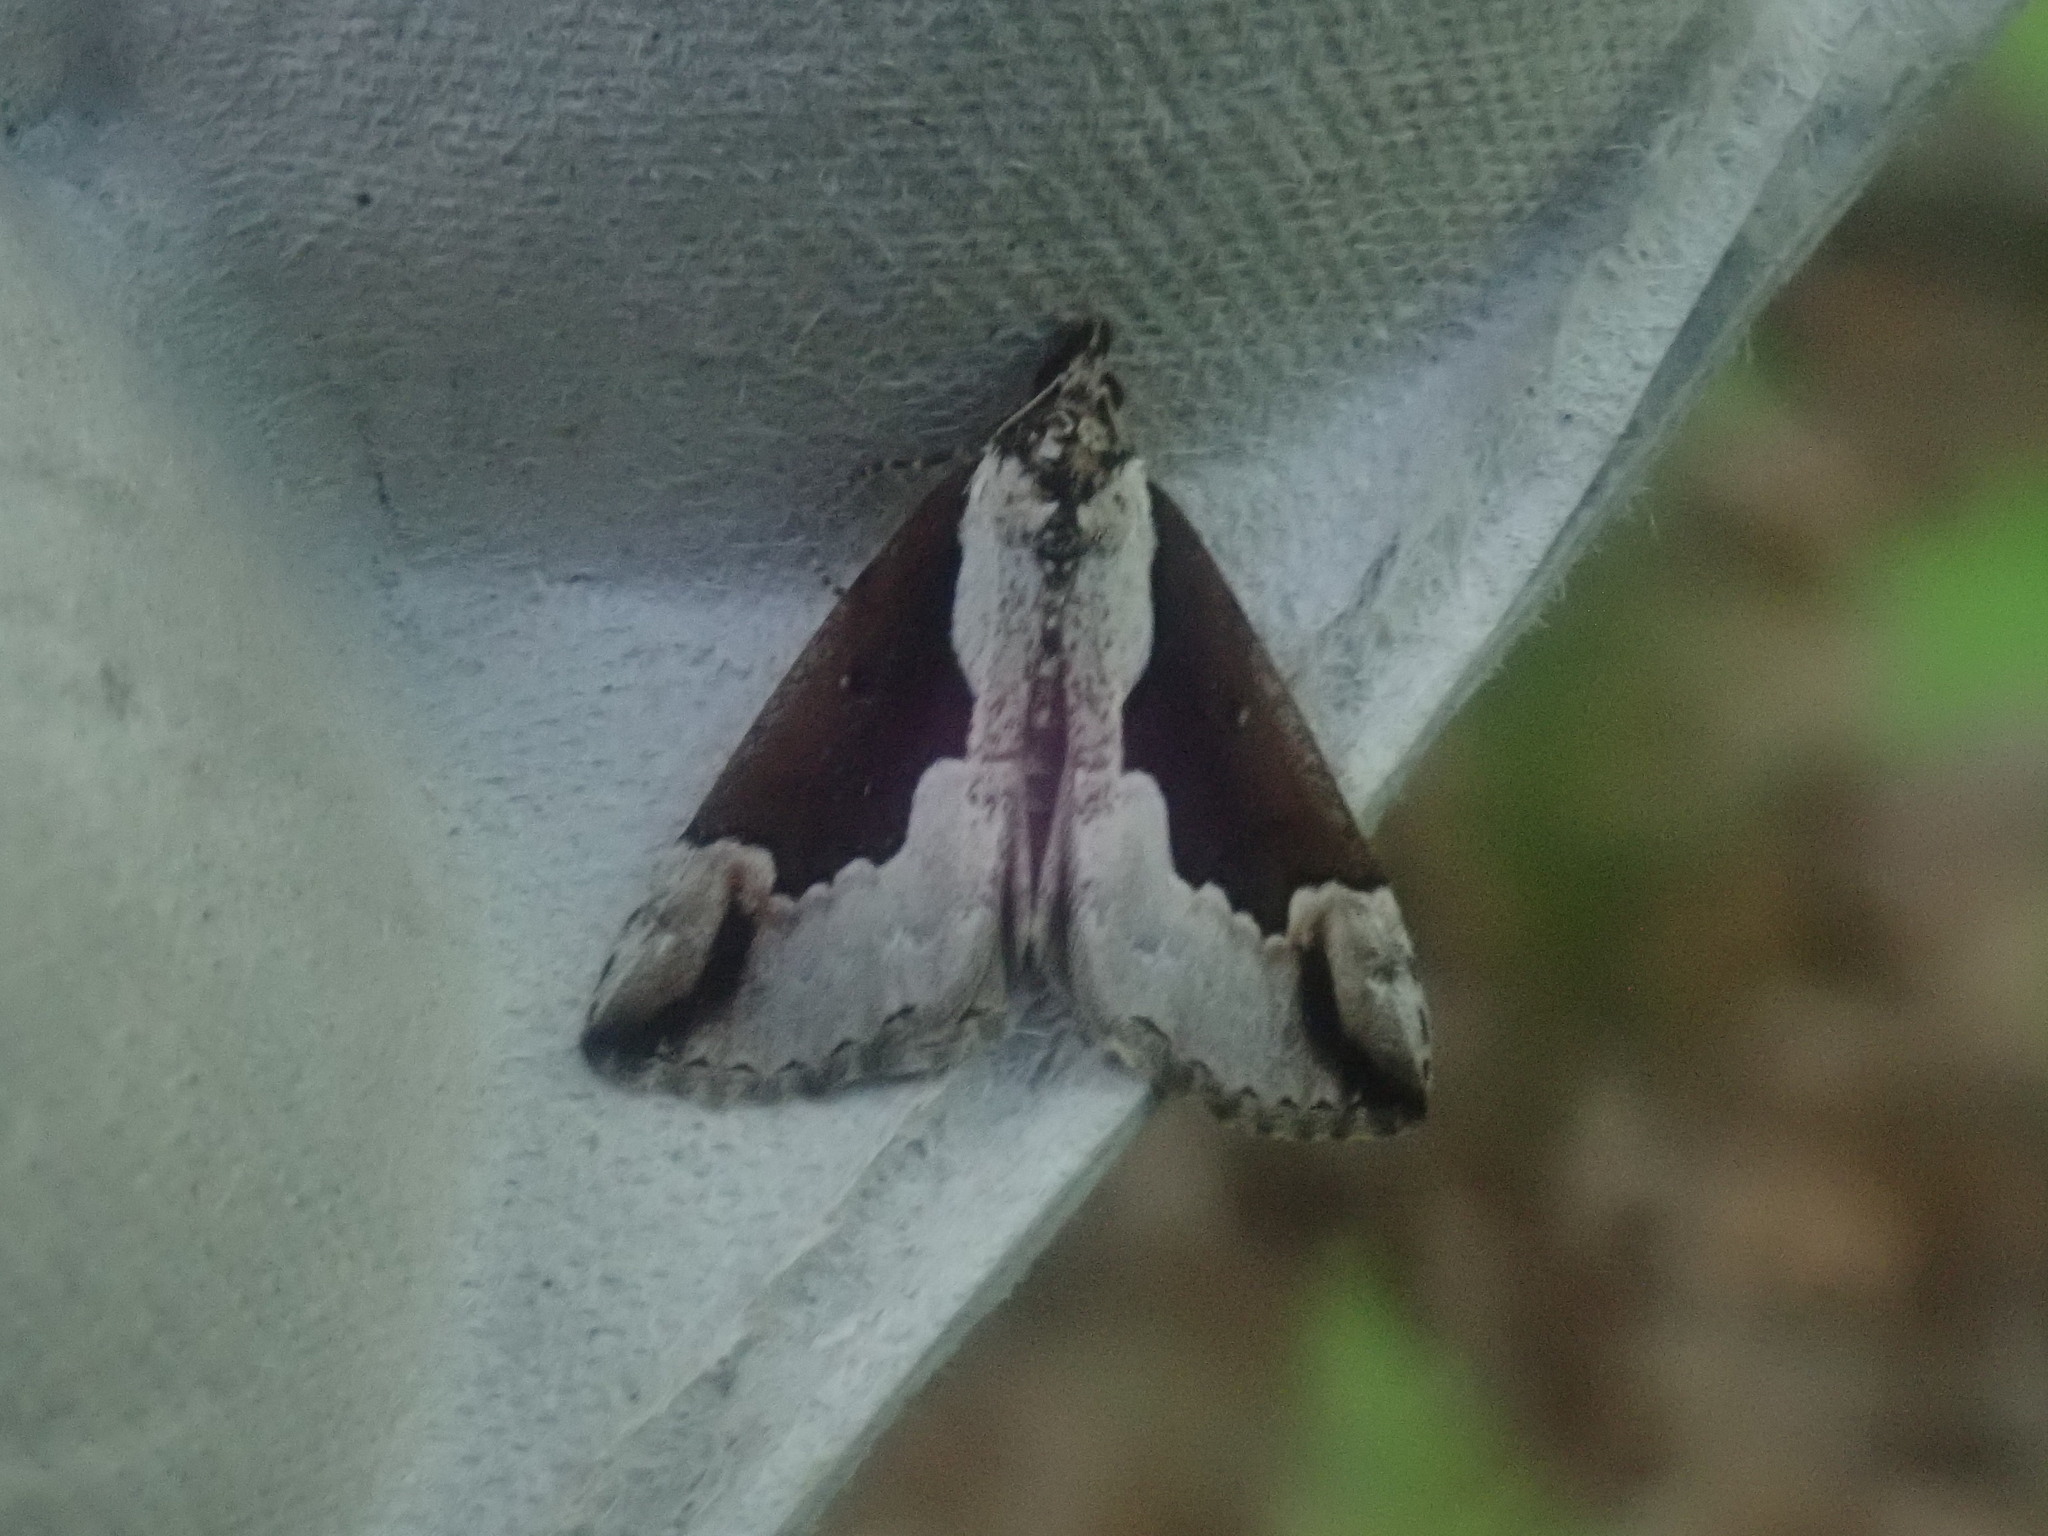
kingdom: Animalia
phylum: Arthropoda
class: Insecta
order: Lepidoptera
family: Erebidae
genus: Hypena
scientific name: Hypena baltimoralis
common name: Baltimore snout
